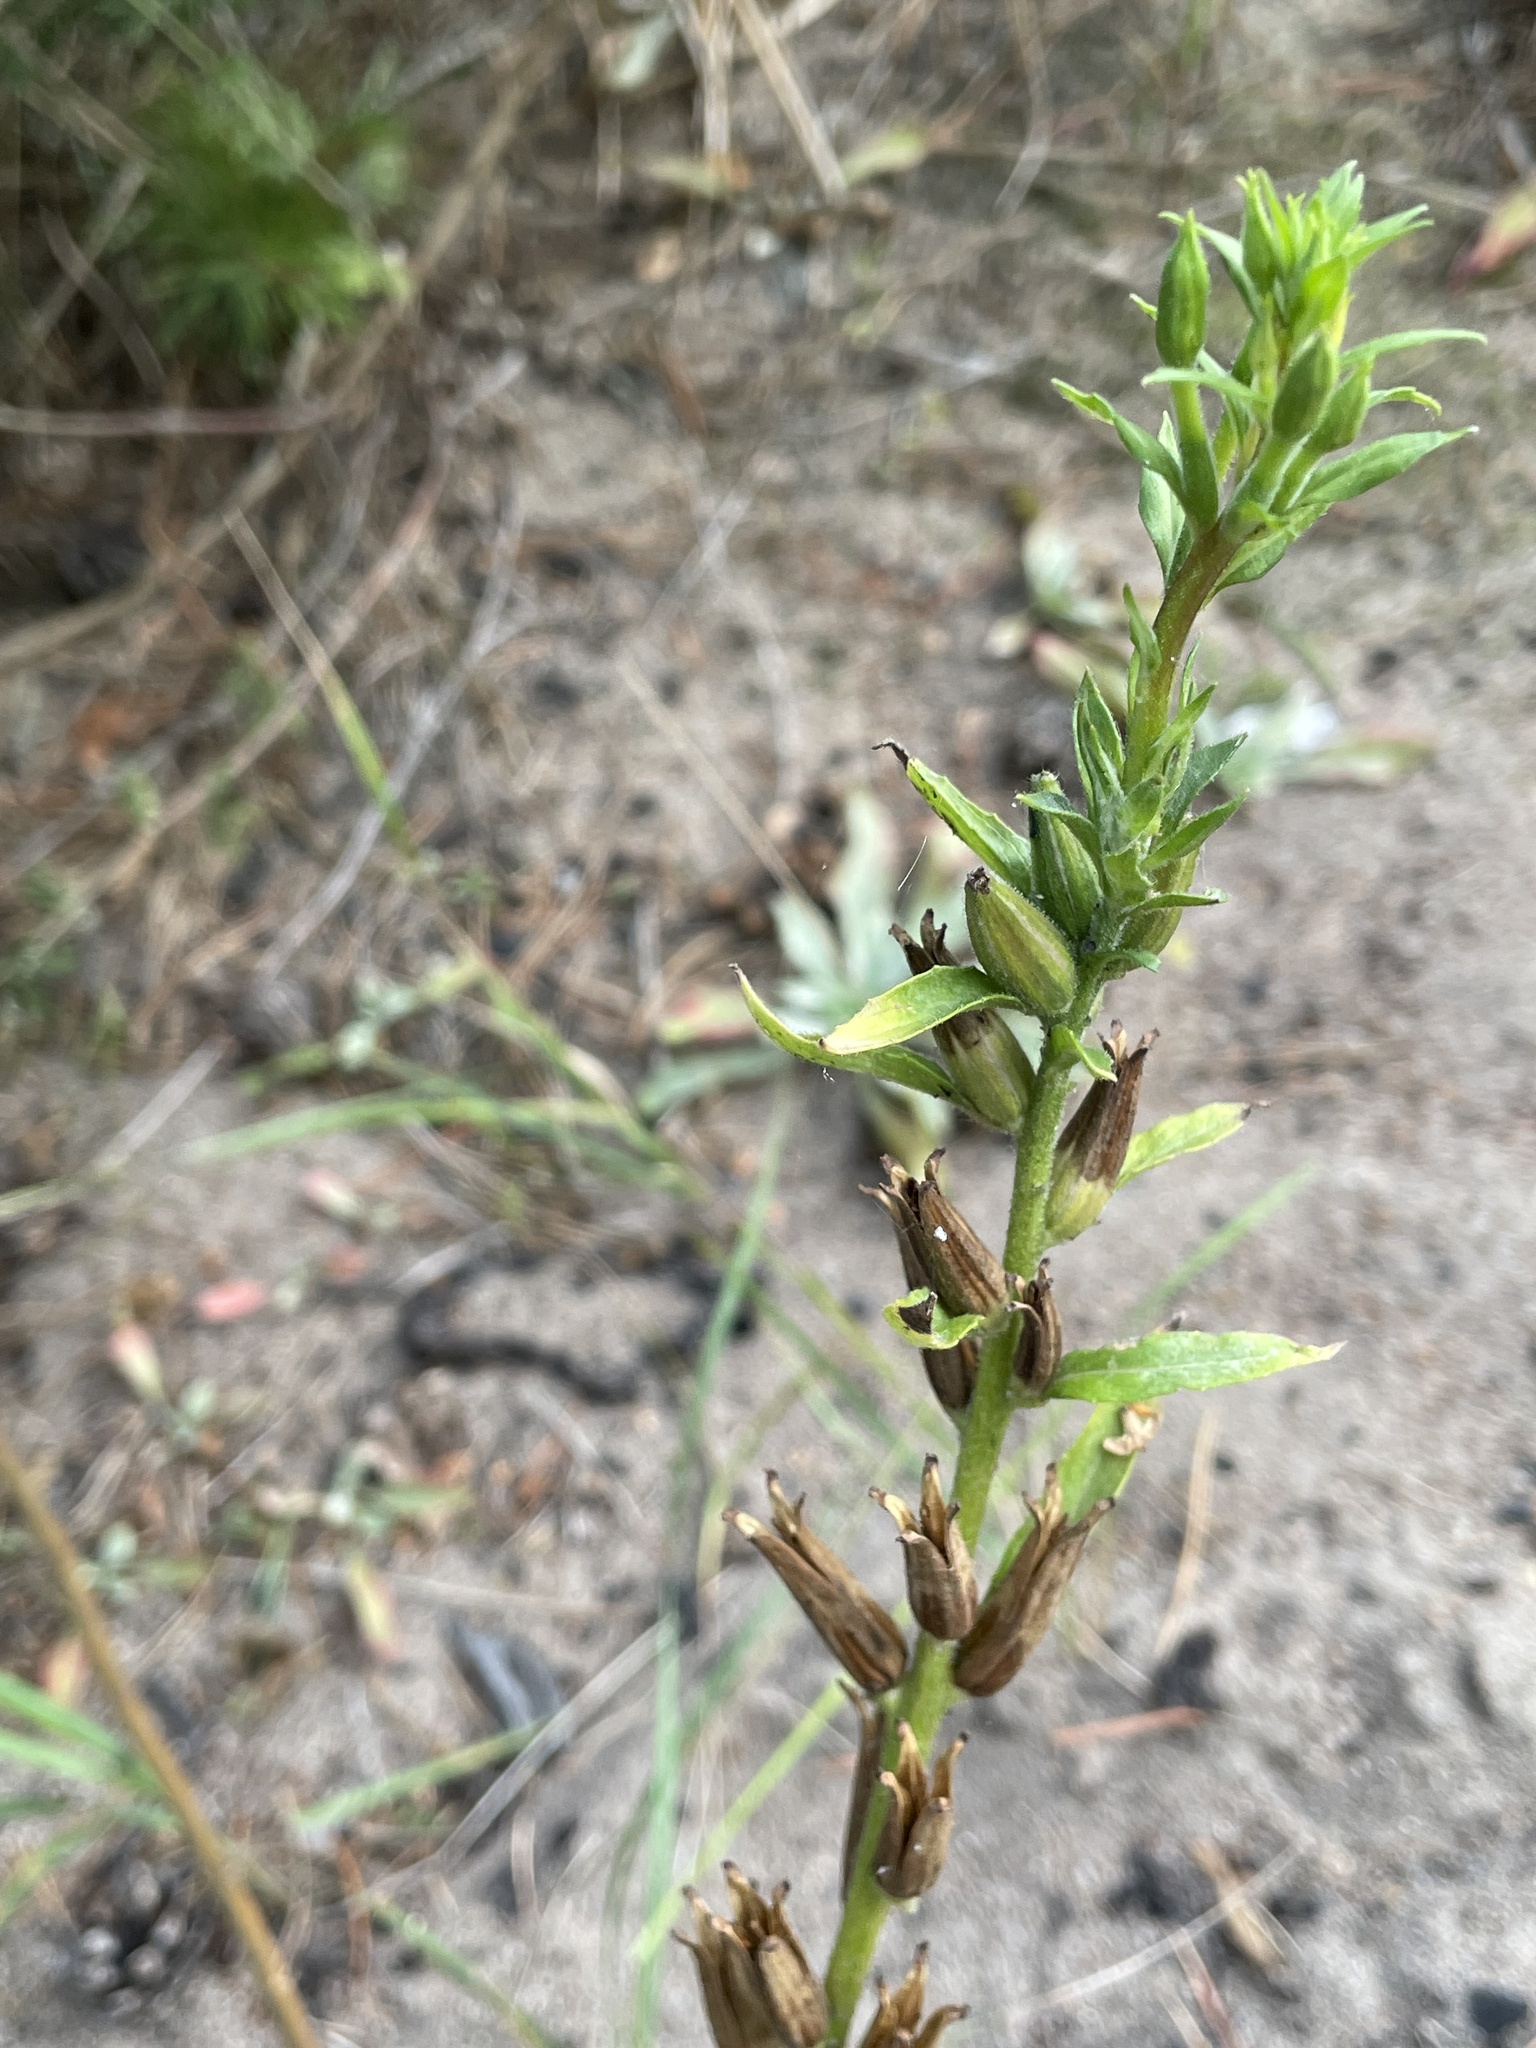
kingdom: Plantae
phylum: Tracheophyta
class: Magnoliopsida
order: Myrtales
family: Onagraceae
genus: Oenothera
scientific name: Oenothera rubricaulis
